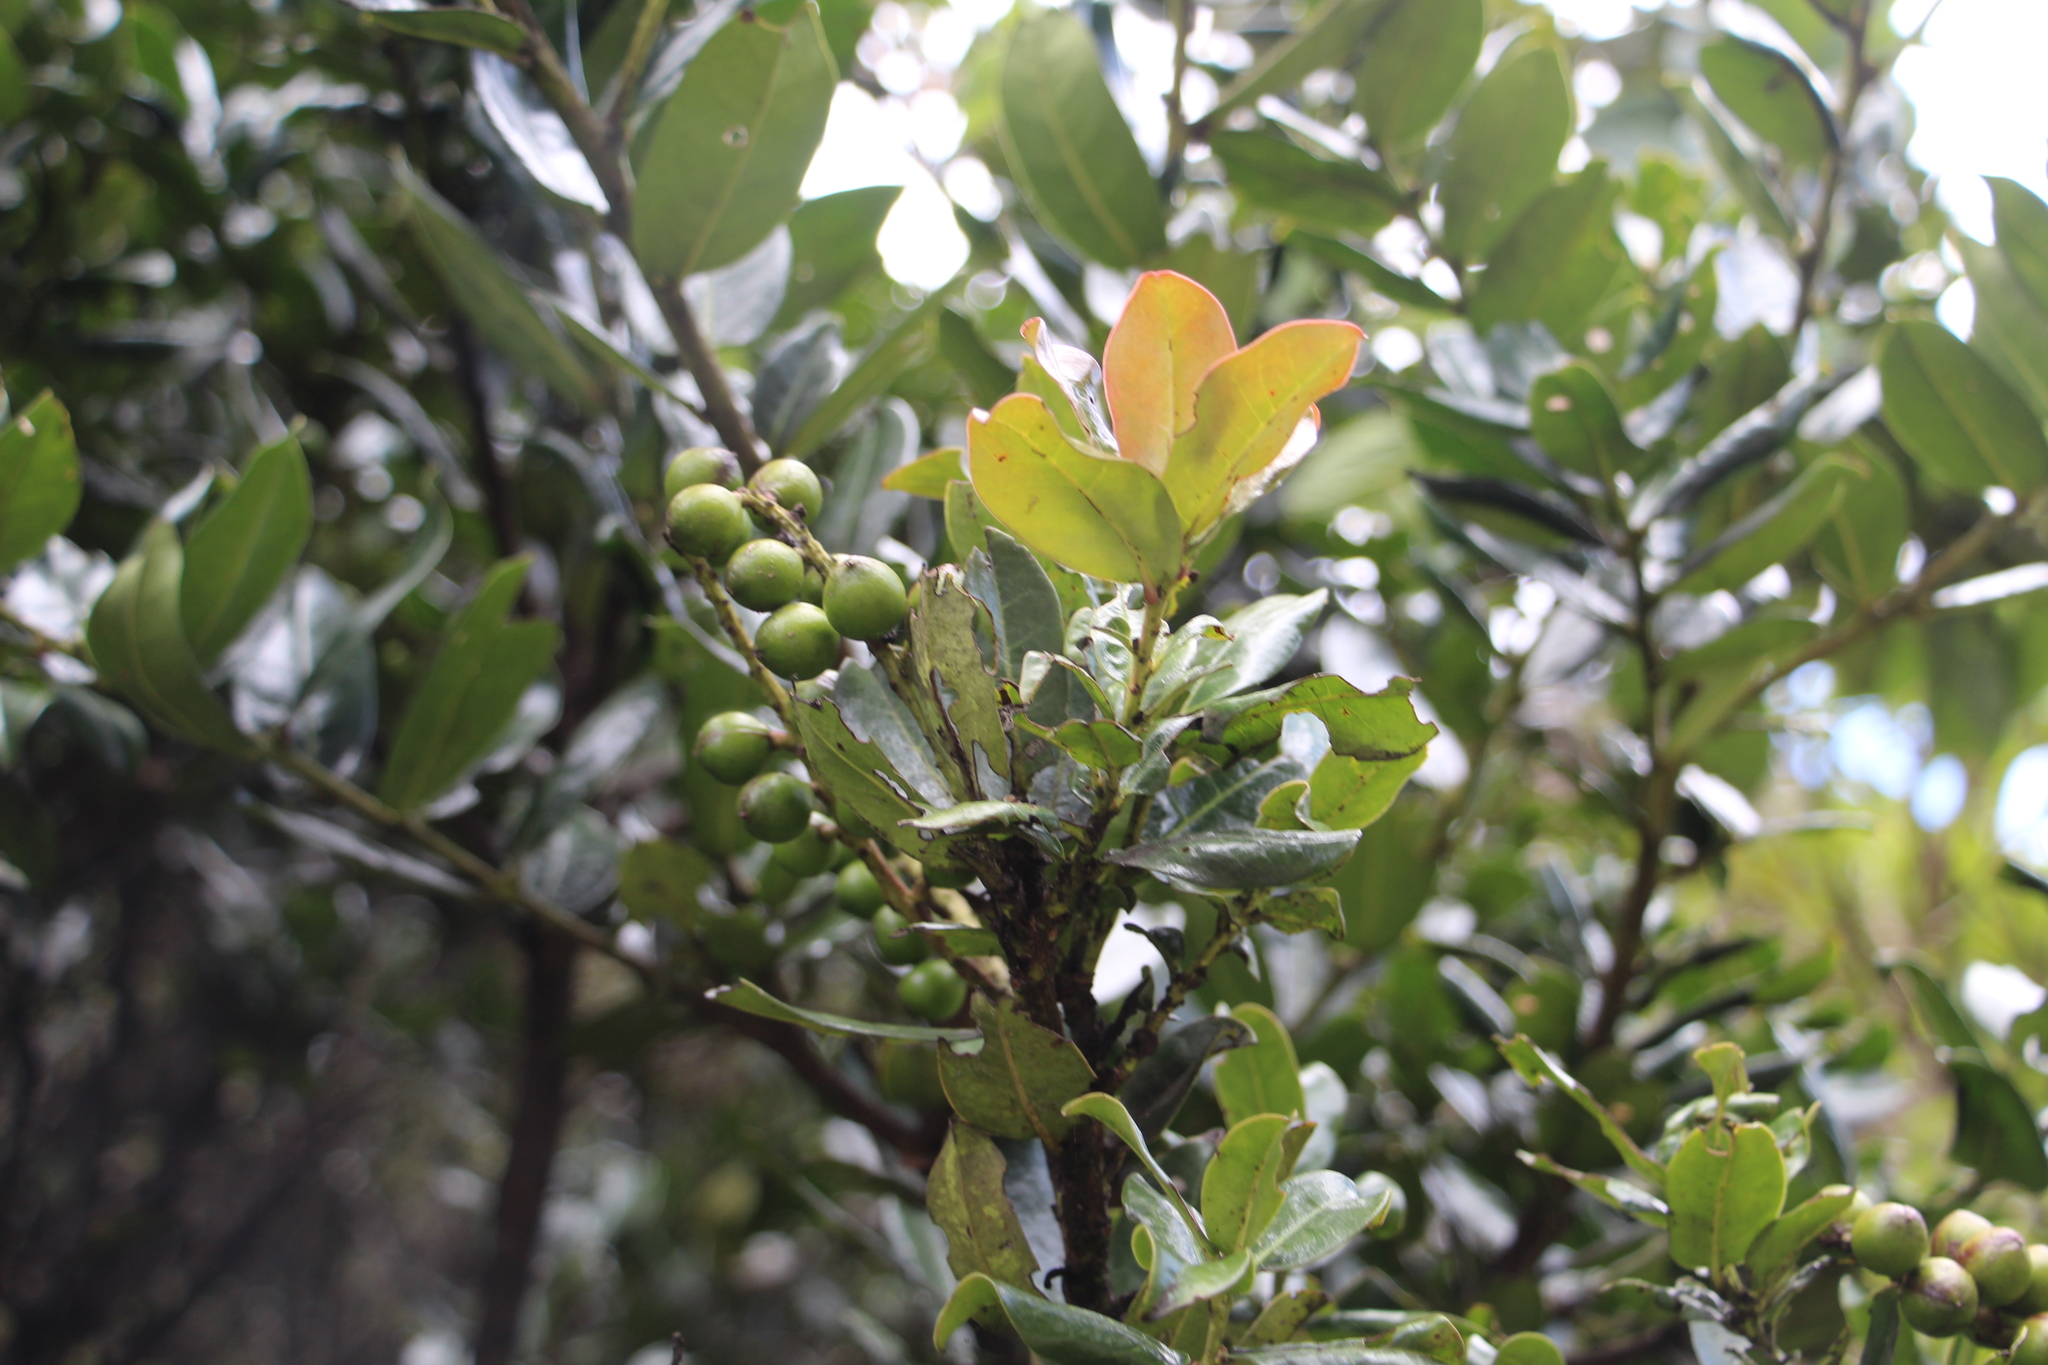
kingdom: Plantae
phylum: Tracheophyta
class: Magnoliopsida
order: Rosales
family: Rosaceae
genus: Prunus
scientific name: Prunus buxifolia
